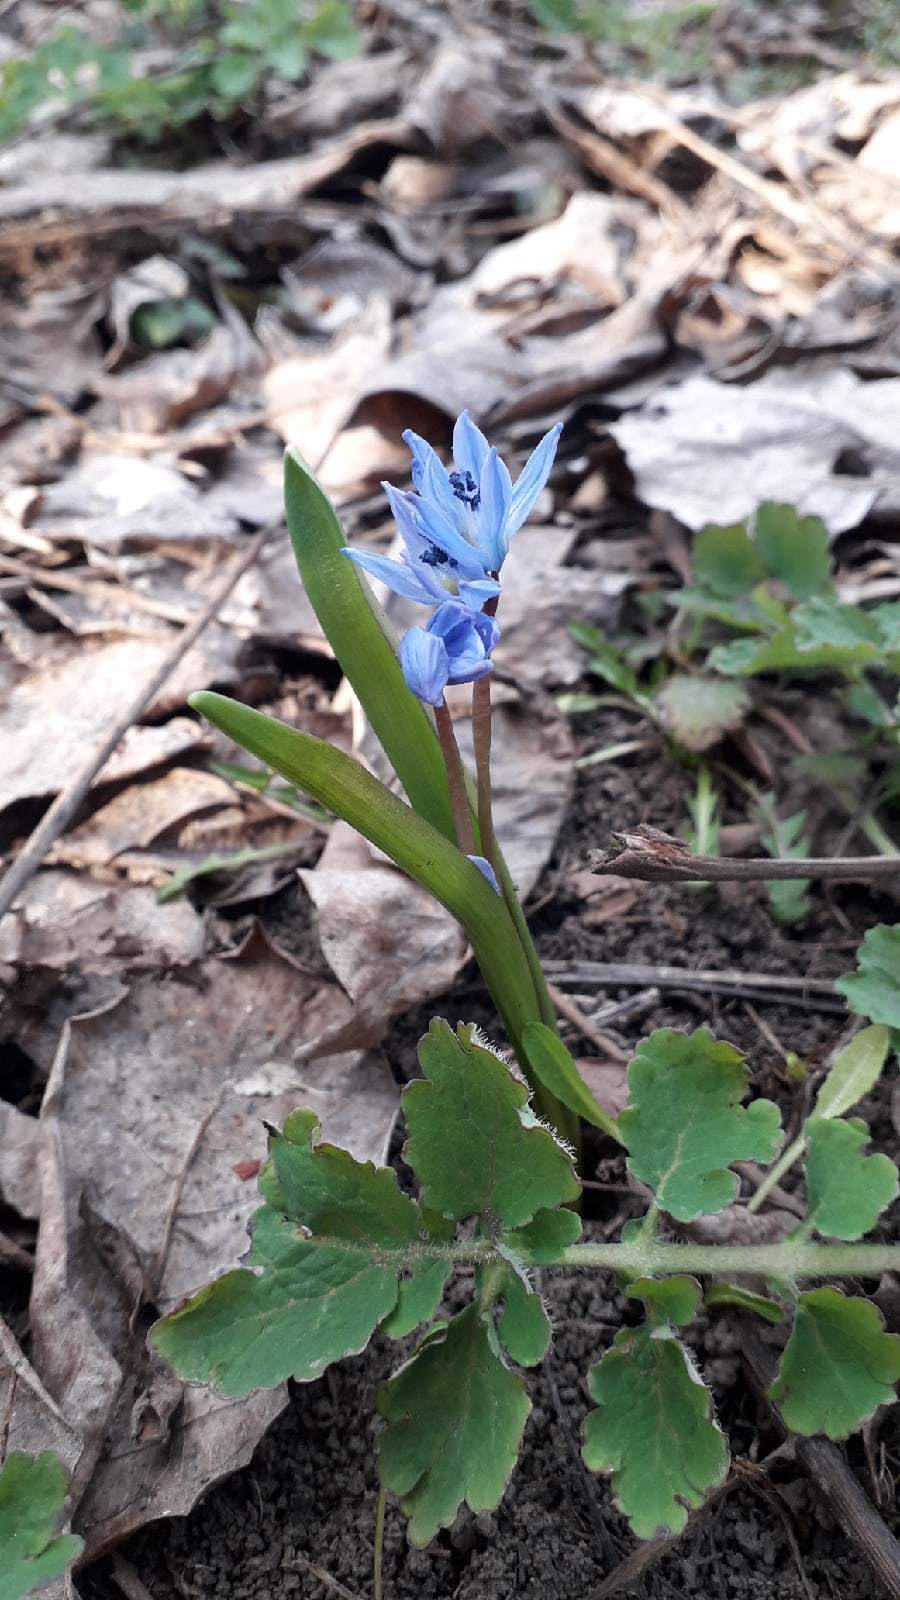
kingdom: Plantae
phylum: Tracheophyta
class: Liliopsida
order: Asparagales
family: Asparagaceae
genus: Scilla
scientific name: Scilla siberica
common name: Siberian squill
